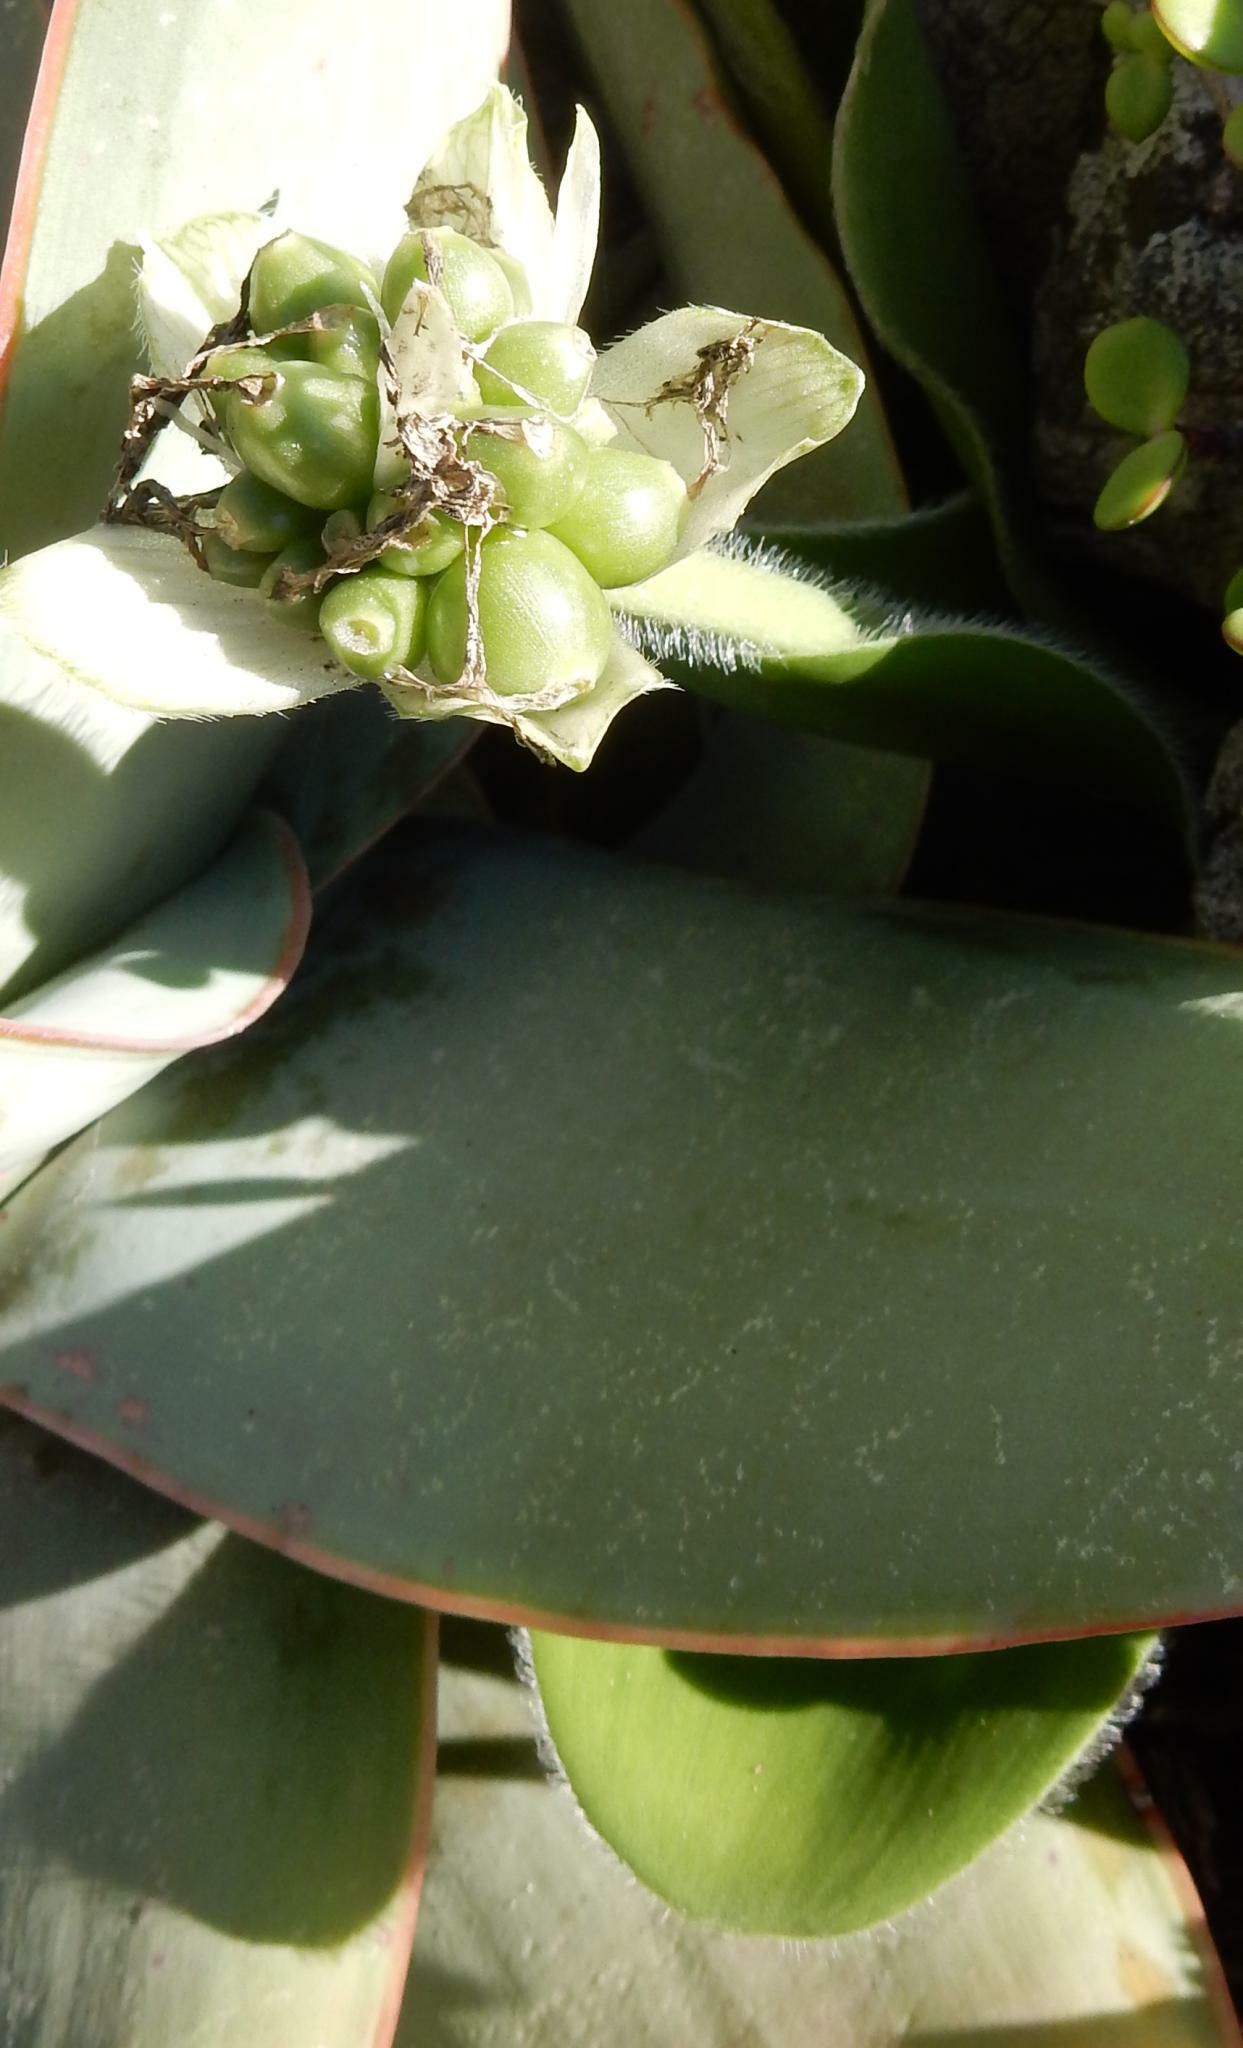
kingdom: Plantae
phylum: Tracheophyta
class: Liliopsida
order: Asparagales
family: Amaryllidaceae
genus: Haemanthus
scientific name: Haemanthus albiflos
